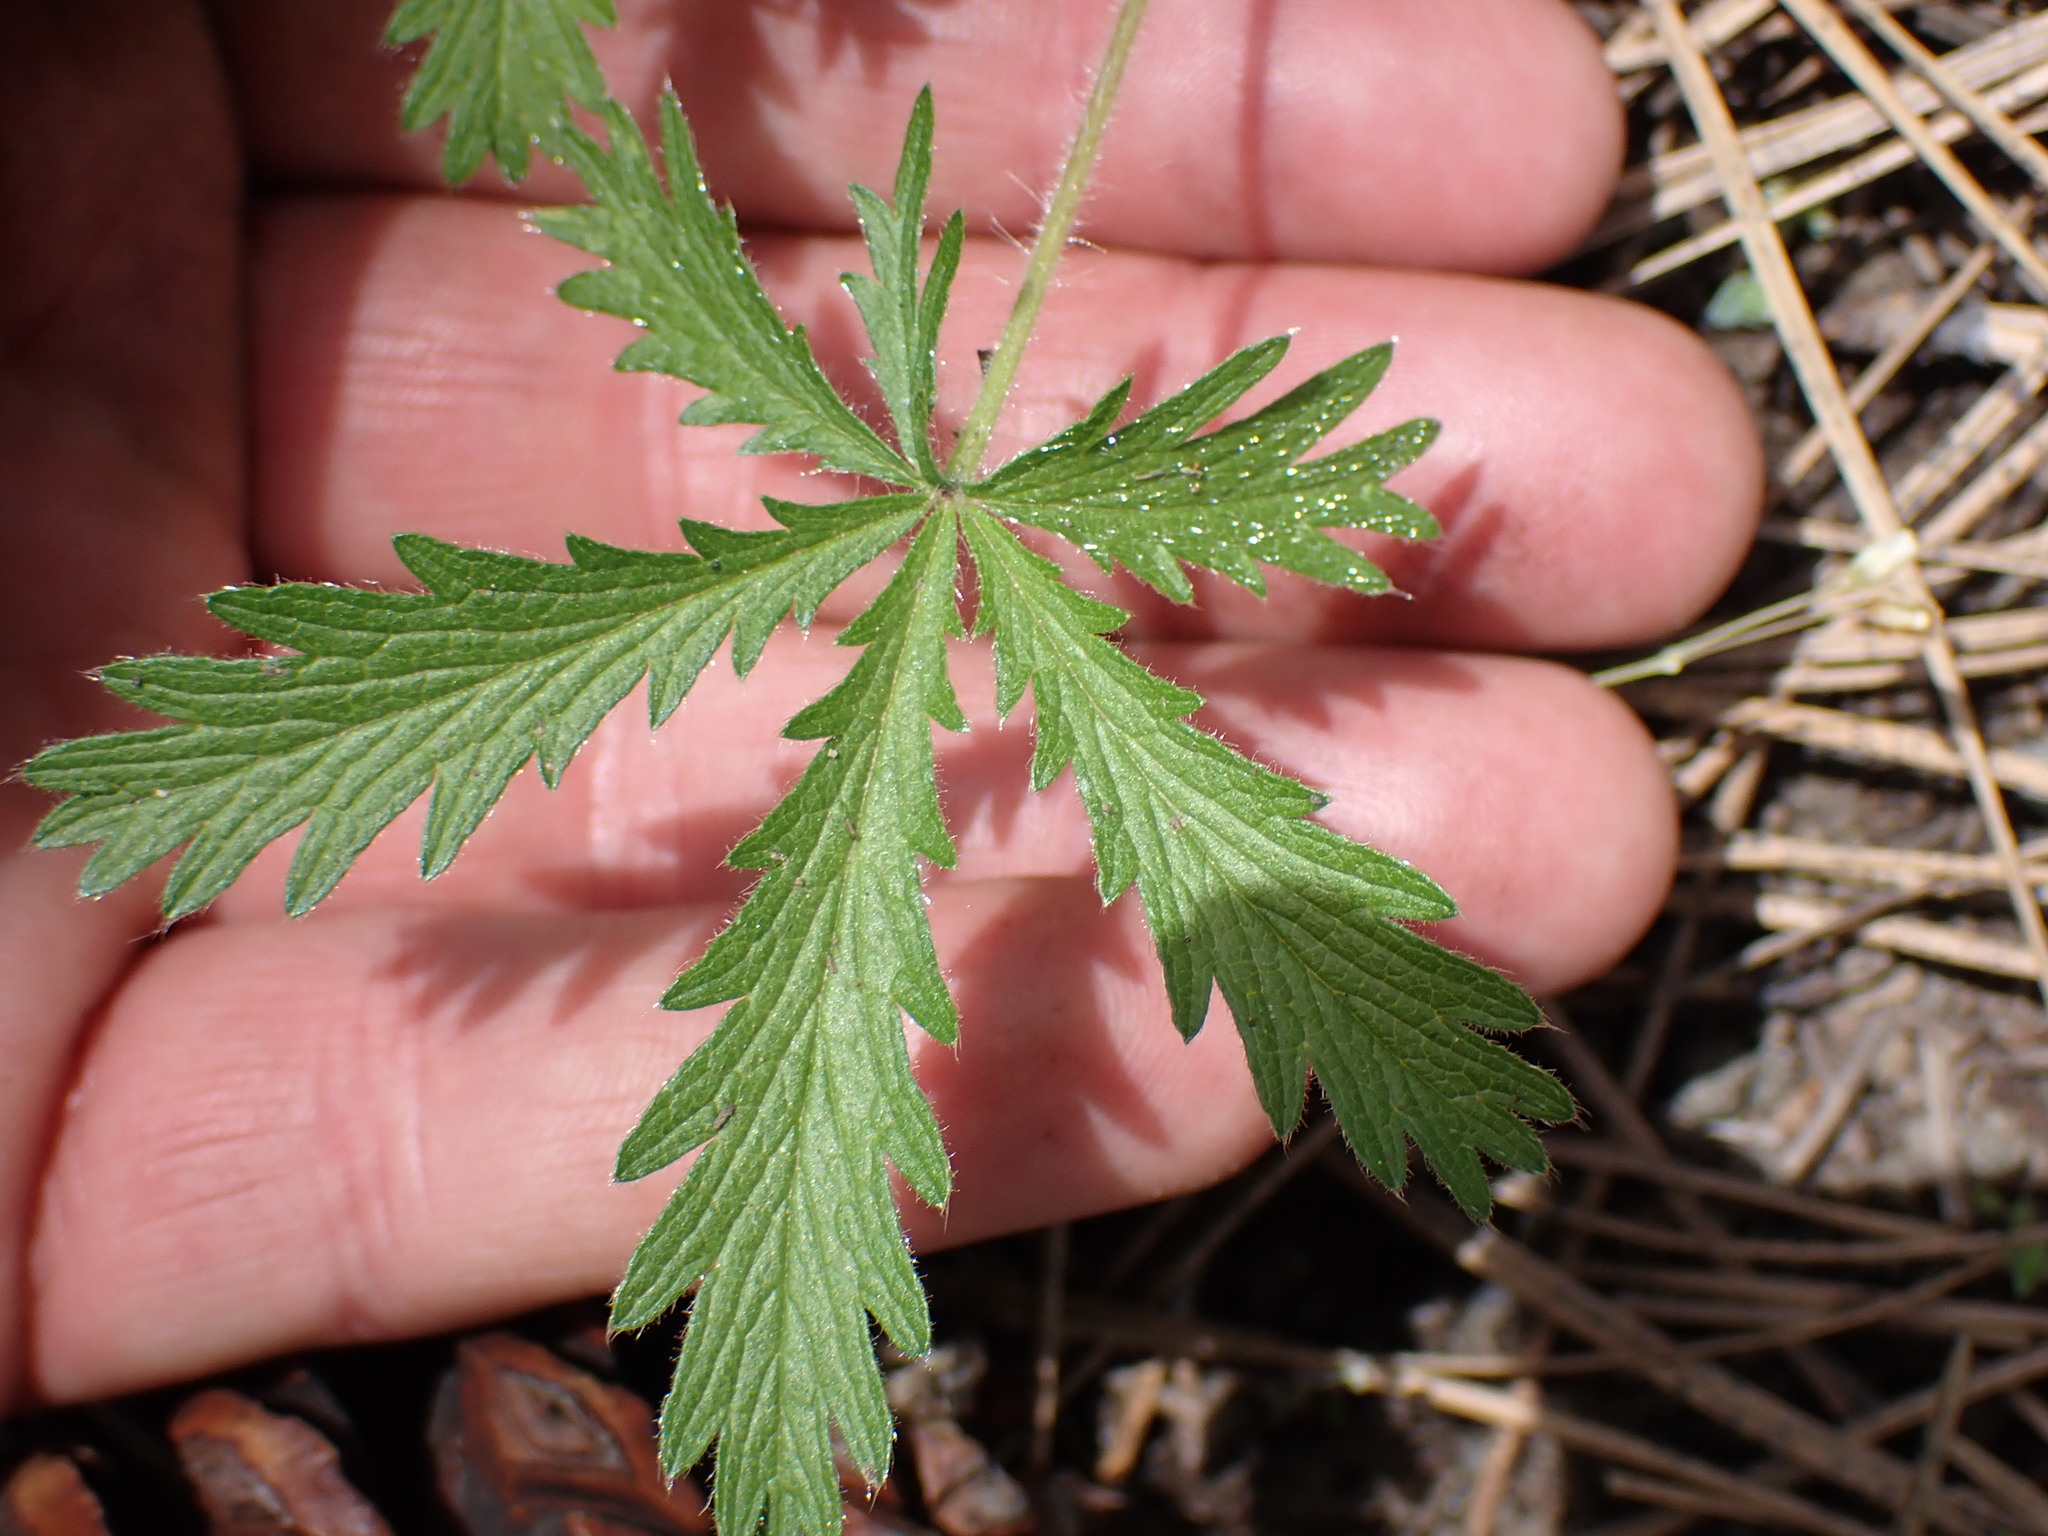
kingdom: Plantae
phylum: Tracheophyta
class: Magnoliopsida
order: Rosales
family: Rosaceae
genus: Potentilla
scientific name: Potentilla gracilis
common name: Graceful cinquefoil
